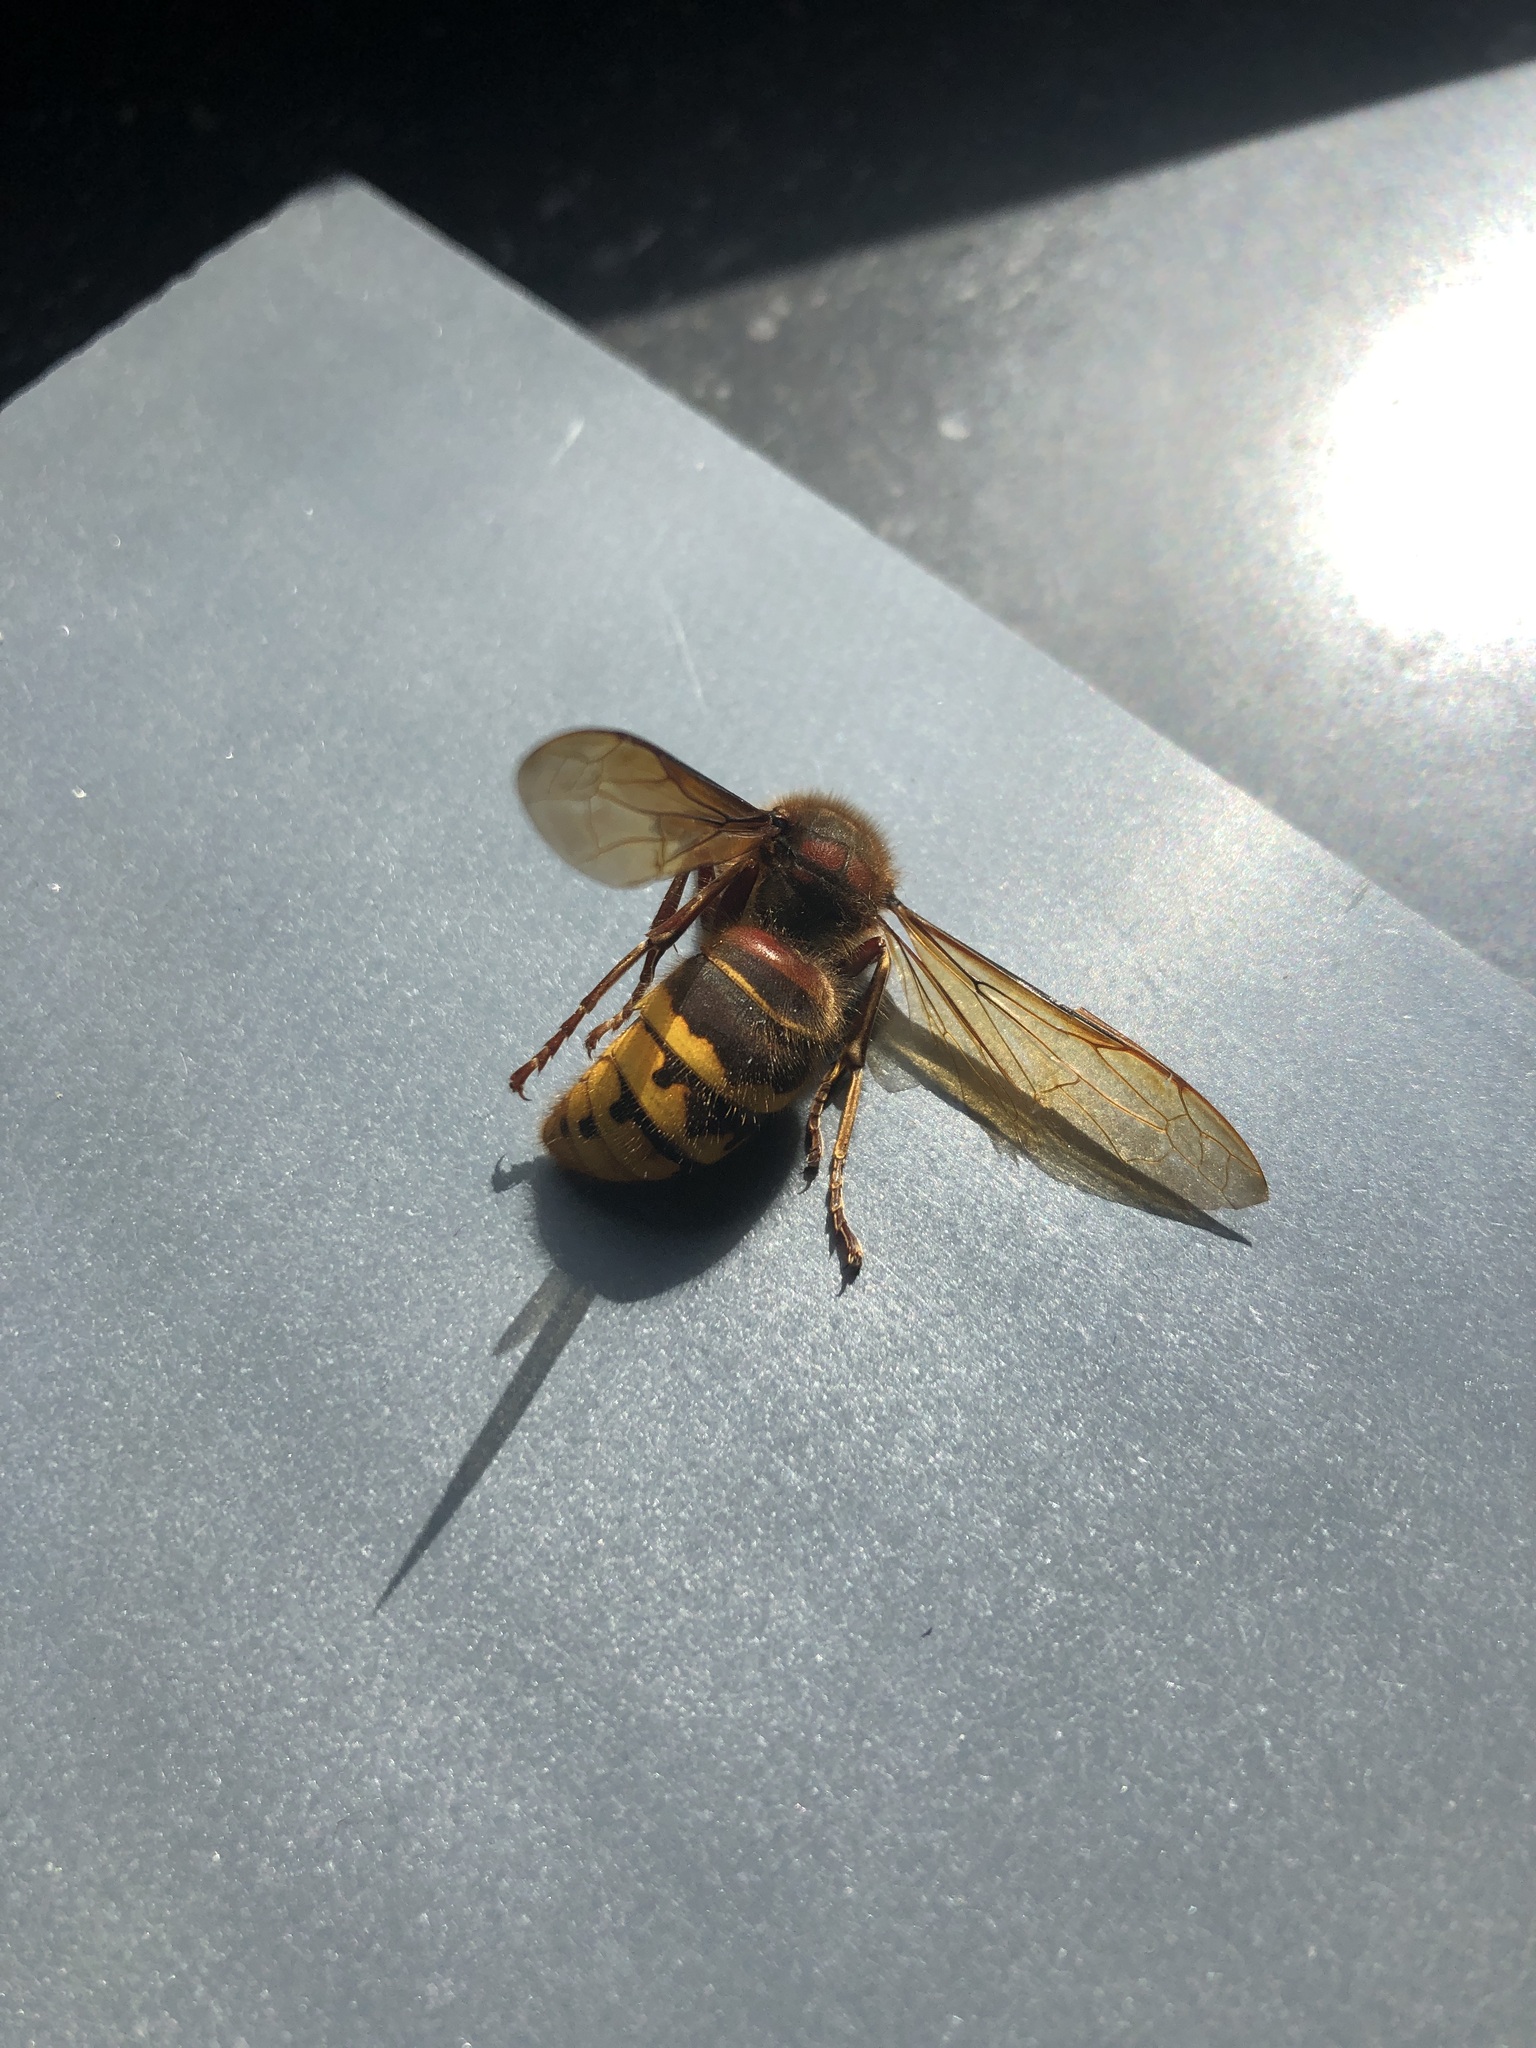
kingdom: Animalia
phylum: Arthropoda
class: Insecta
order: Hymenoptera
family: Vespidae
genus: Vespa
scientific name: Vespa crabro
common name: Hornet
